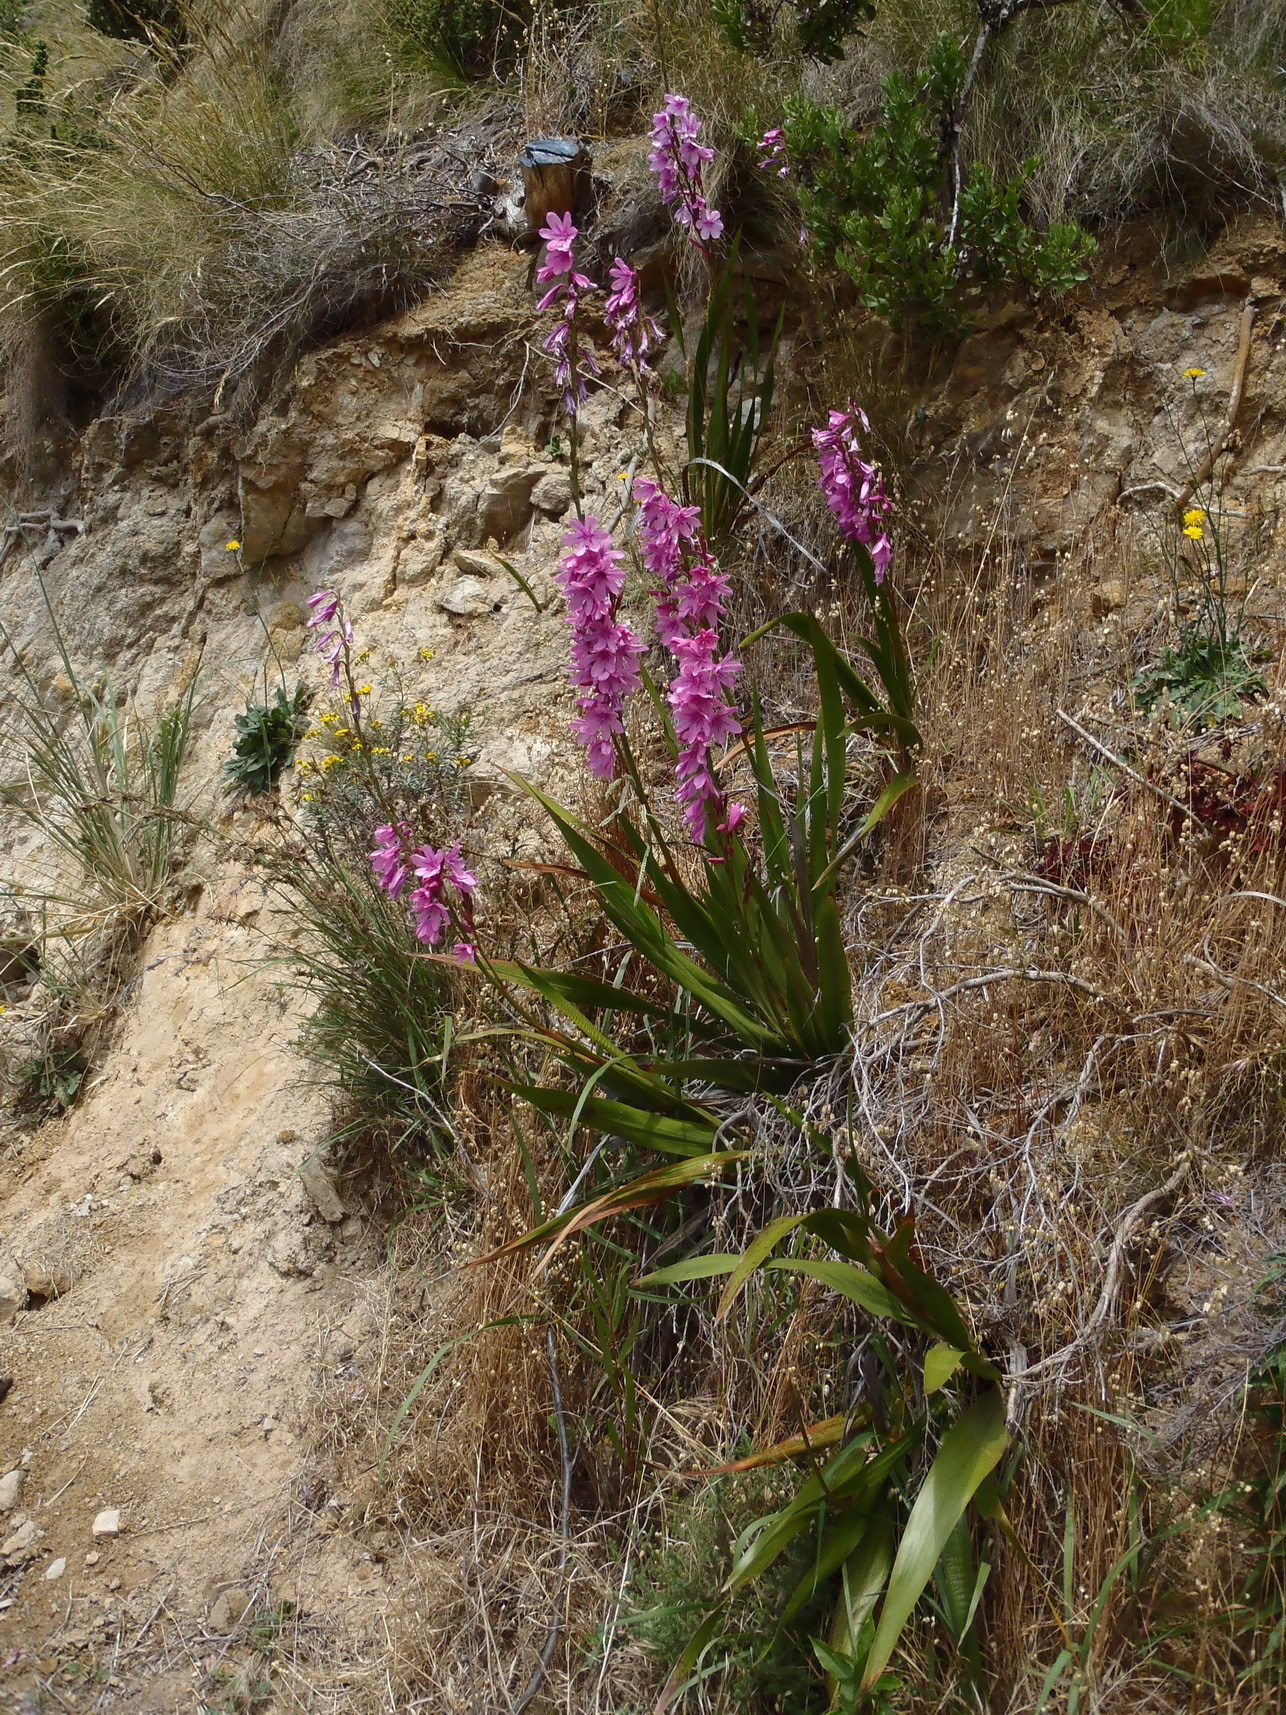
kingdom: Plantae
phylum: Tracheophyta
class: Liliopsida
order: Asparagales
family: Iridaceae
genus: Watsonia
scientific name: Watsonia borbonica
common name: Bugle-lily
